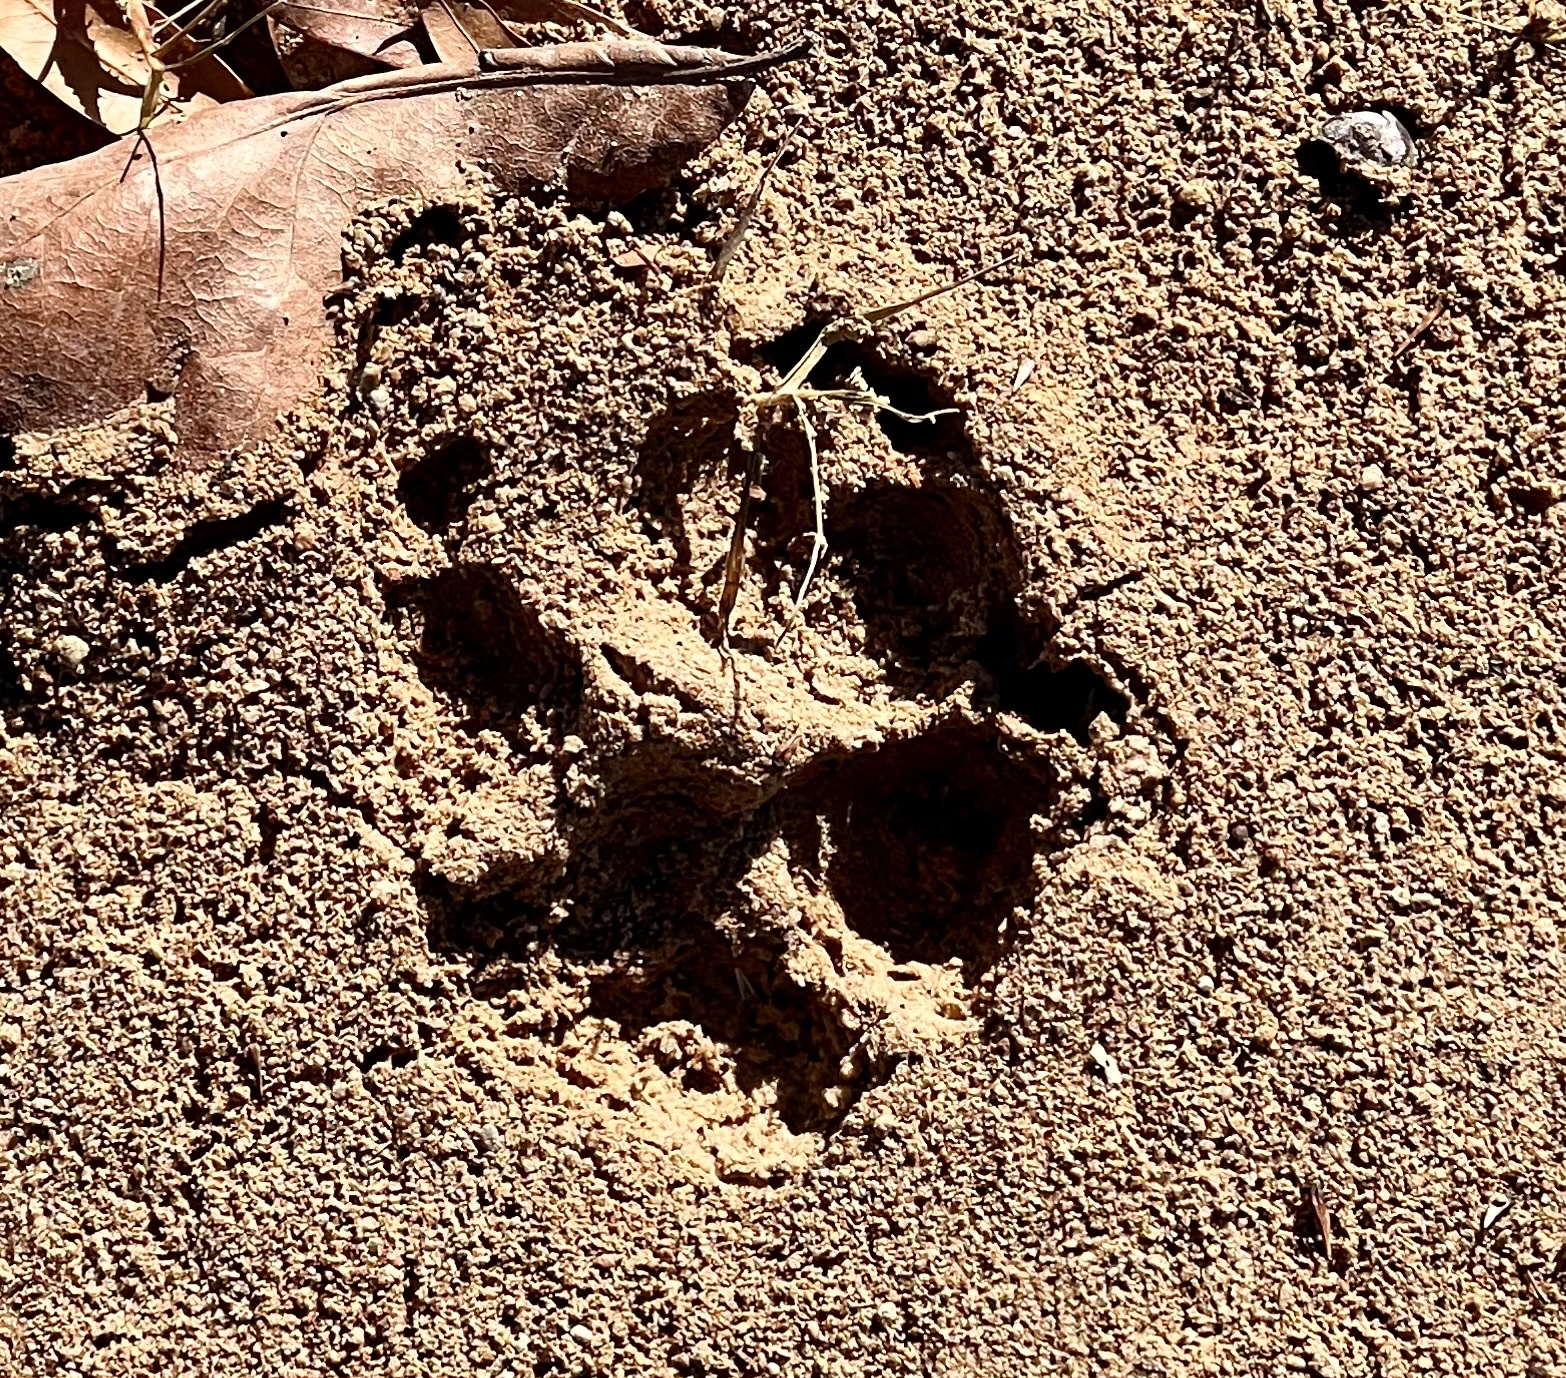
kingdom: Animalia
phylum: Chordata
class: Mammalia
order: Carnivora
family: Canidae
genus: Canis
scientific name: Canis latrans
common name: Coyote
